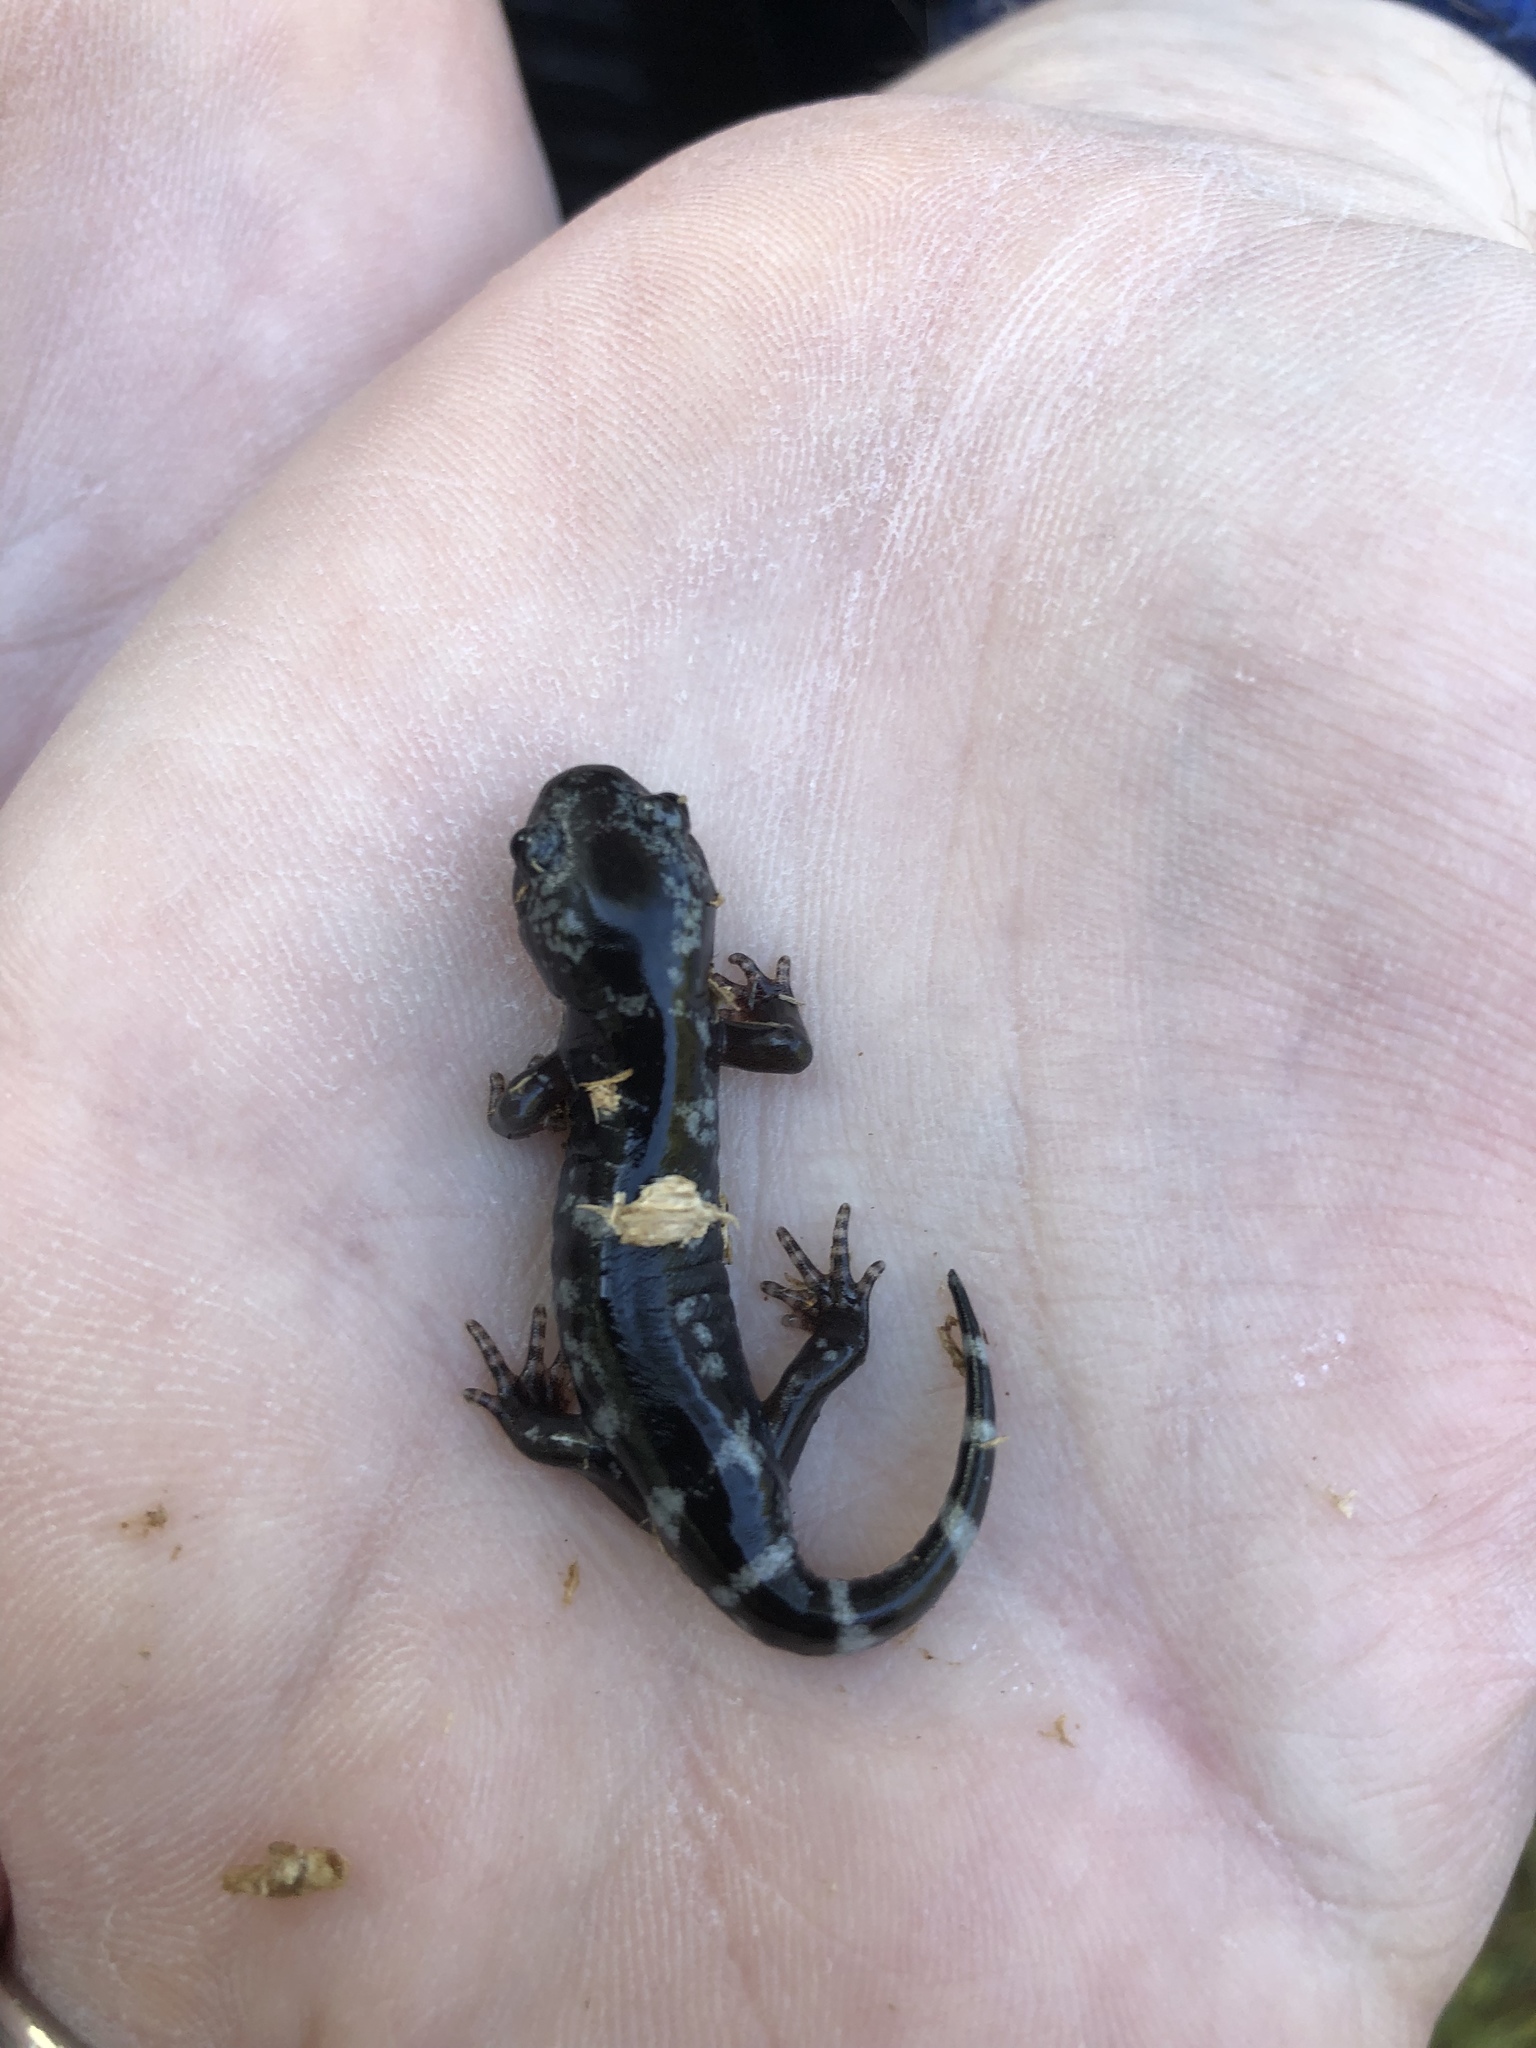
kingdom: Animalia
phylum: Chordata
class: Amphibia
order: Caudata
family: Ambystomatidae
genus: Ambystoma
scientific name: Ambystoma opacum
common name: Marbled salamander
